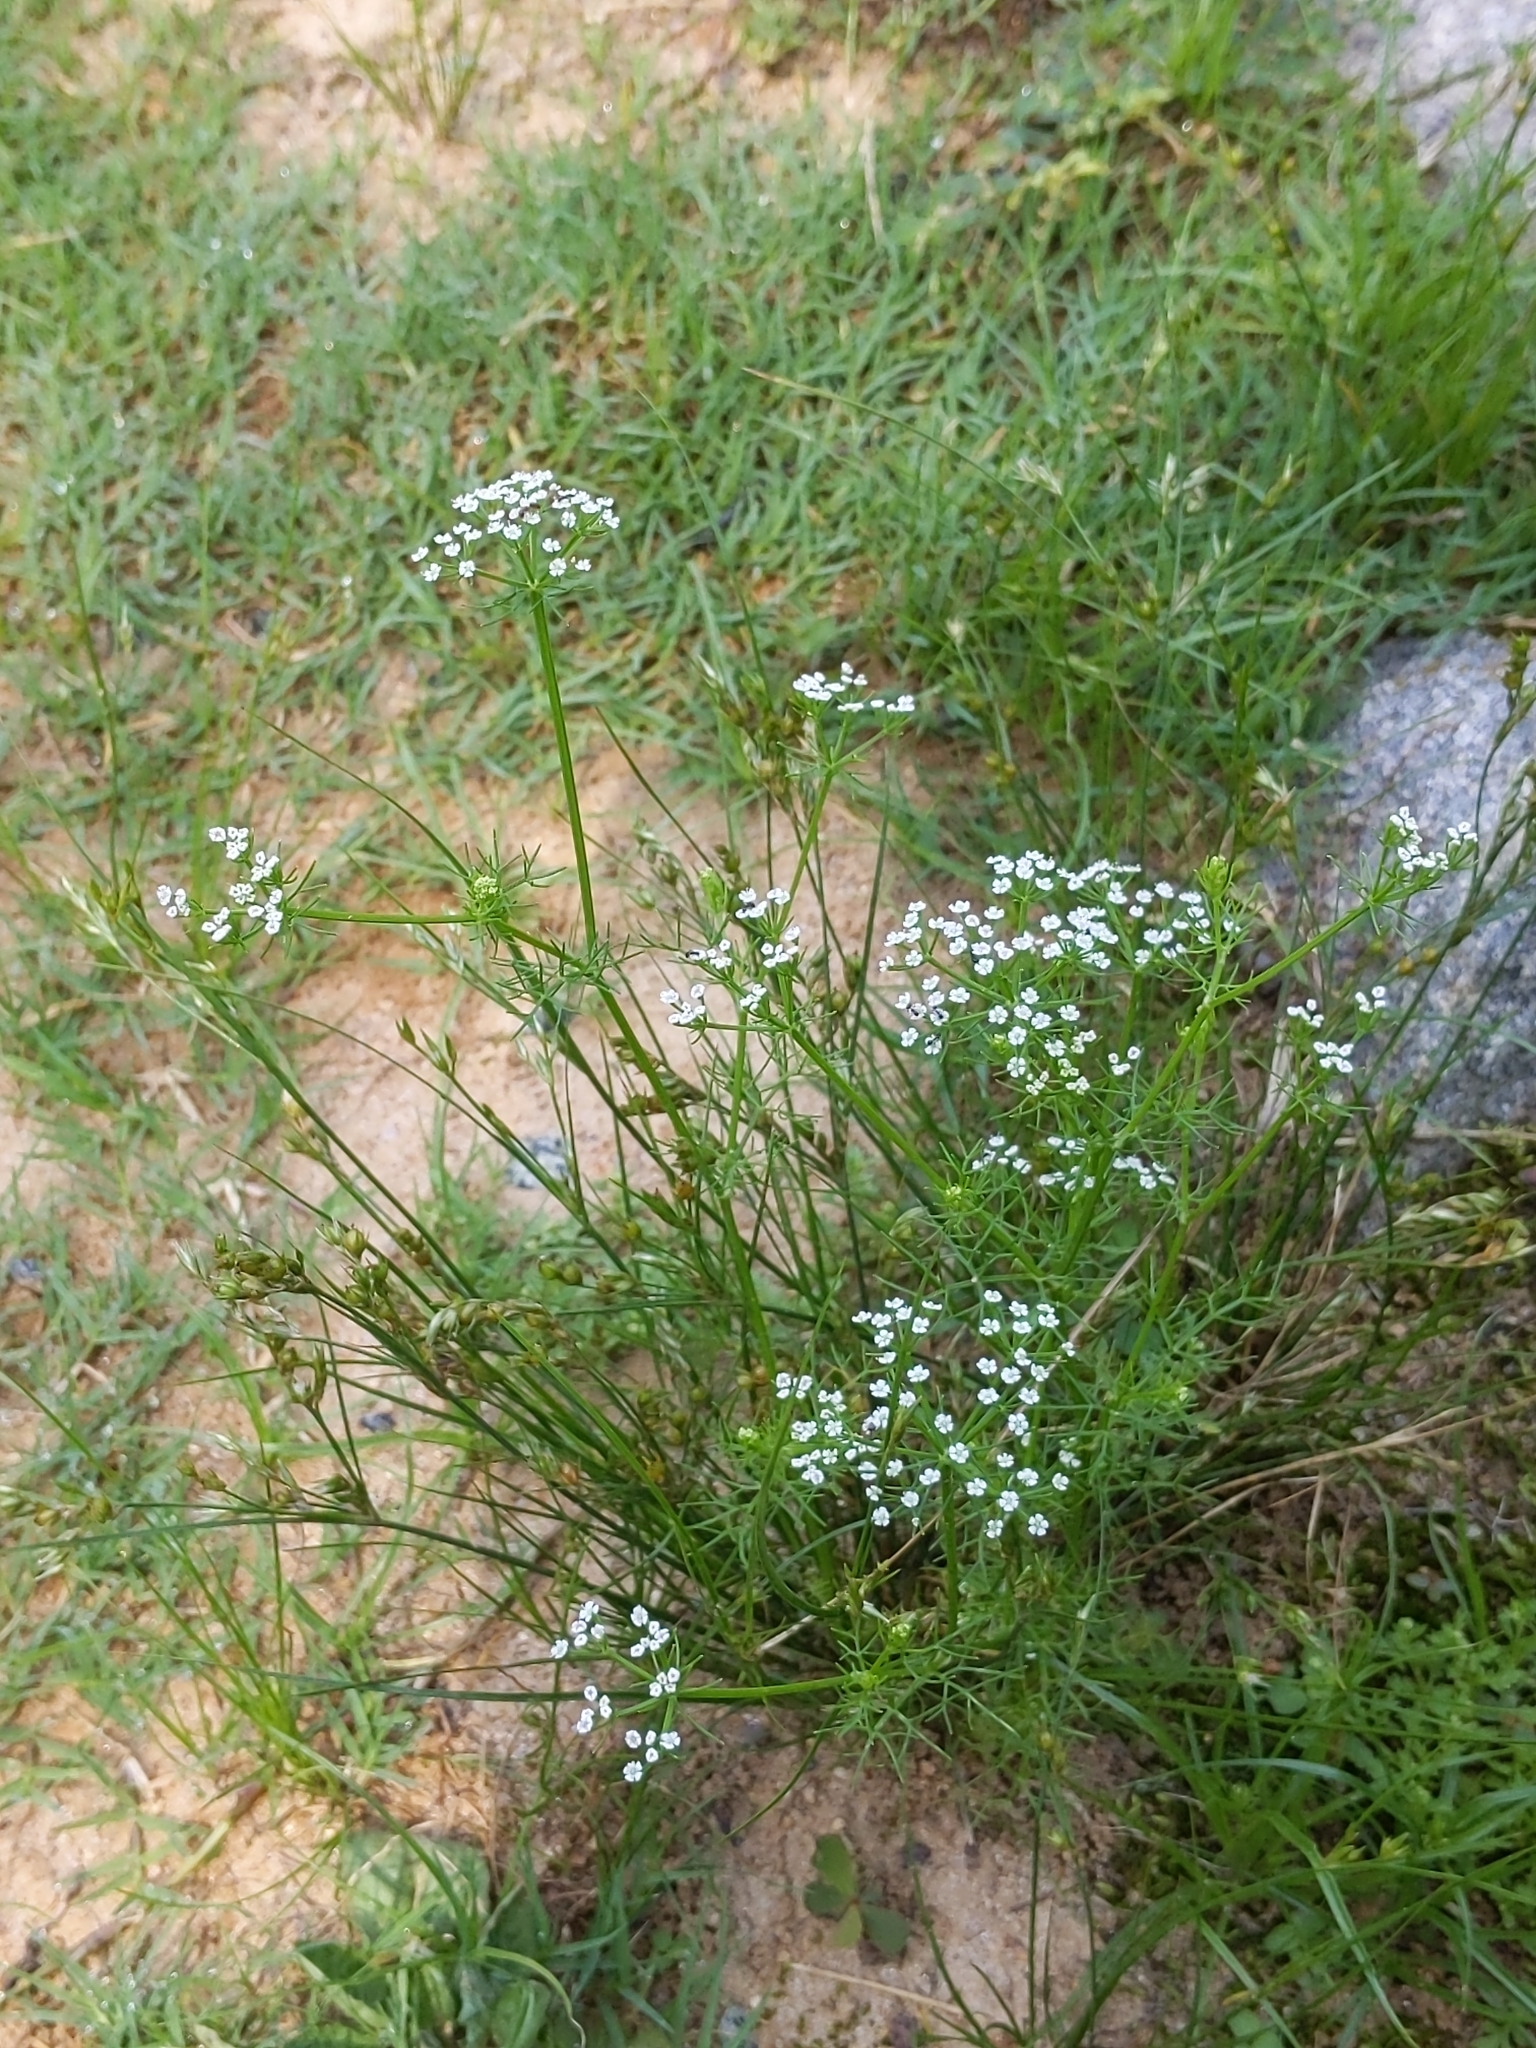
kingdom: Plantae
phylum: Tracheophyta
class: Magnoliopsida
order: Apiales
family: Apiaceae
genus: Ptilimnium
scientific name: Ptilimnium capillaceum
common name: Herbwilliam
